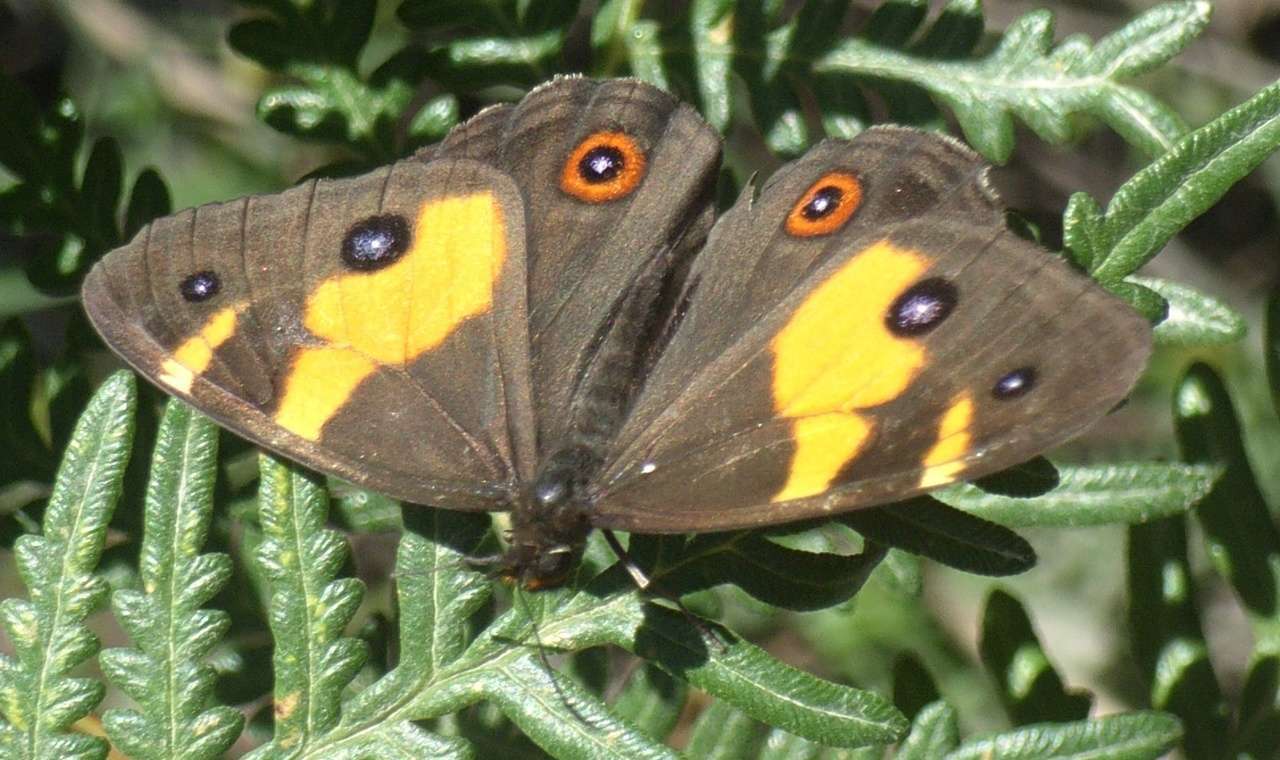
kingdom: Animalia
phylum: Arthropoda
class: Insecta
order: Lepidoptera
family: Nymphalidae
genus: Tisiphone
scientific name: Tisiphone abeona
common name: Swordgrass brown
